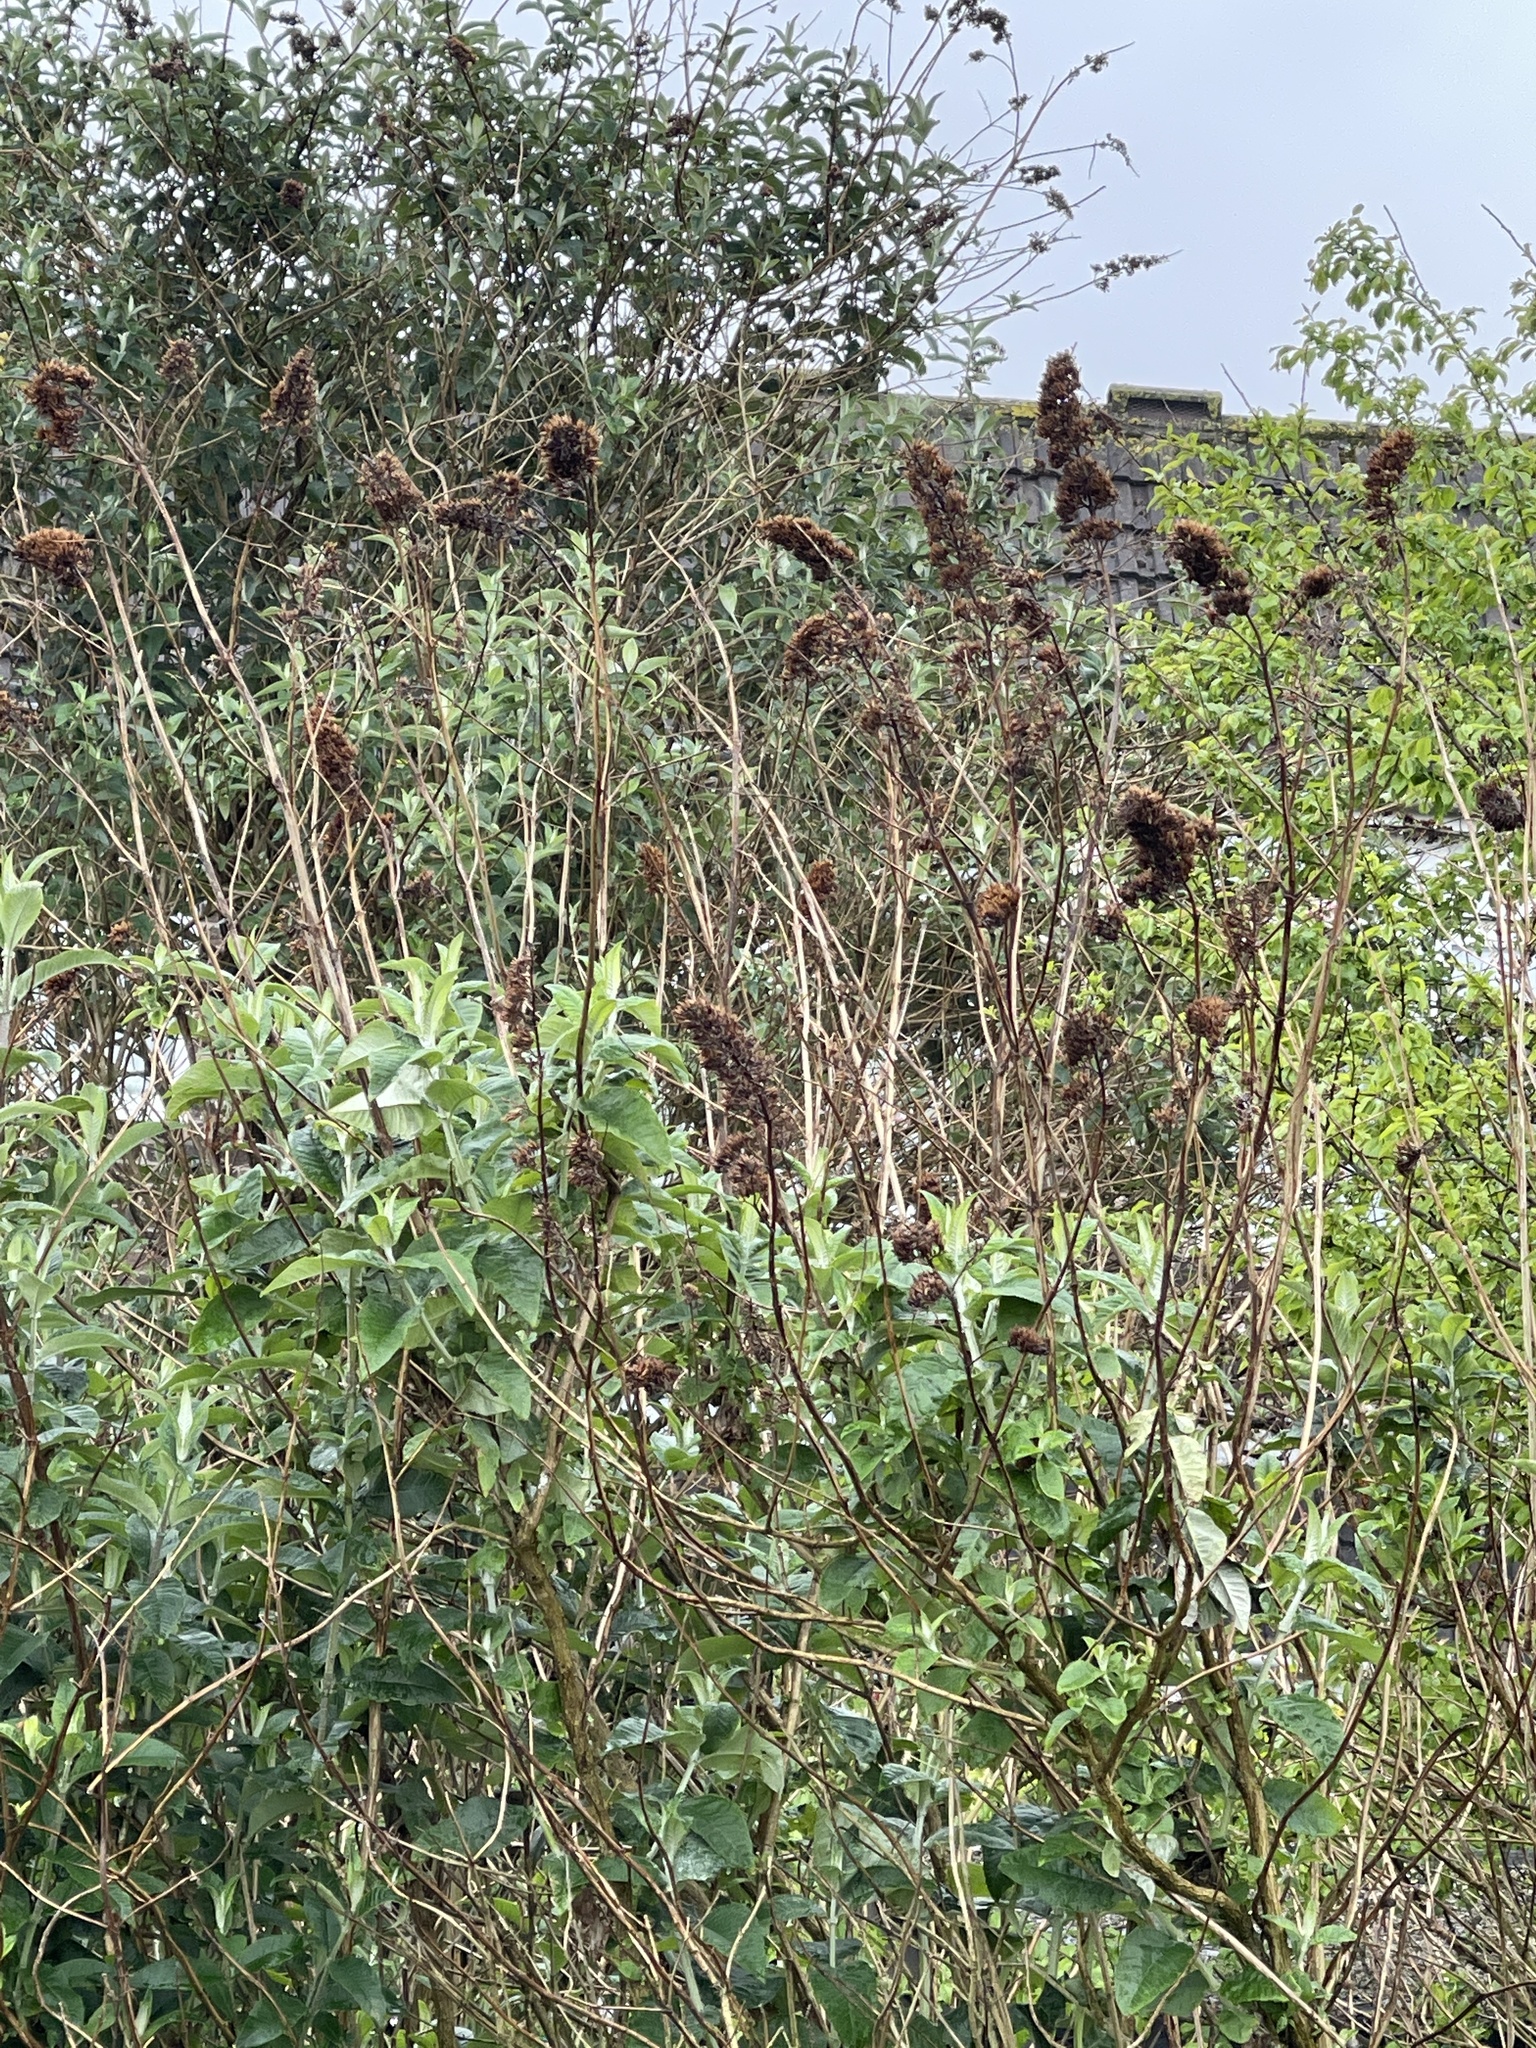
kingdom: Plantae
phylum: Tracheophyta
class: Magnoliopsida
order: Lamiales
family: Scrophulariaceae
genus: Buddleja
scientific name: Buddleja davidii
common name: Butterfly-bush
